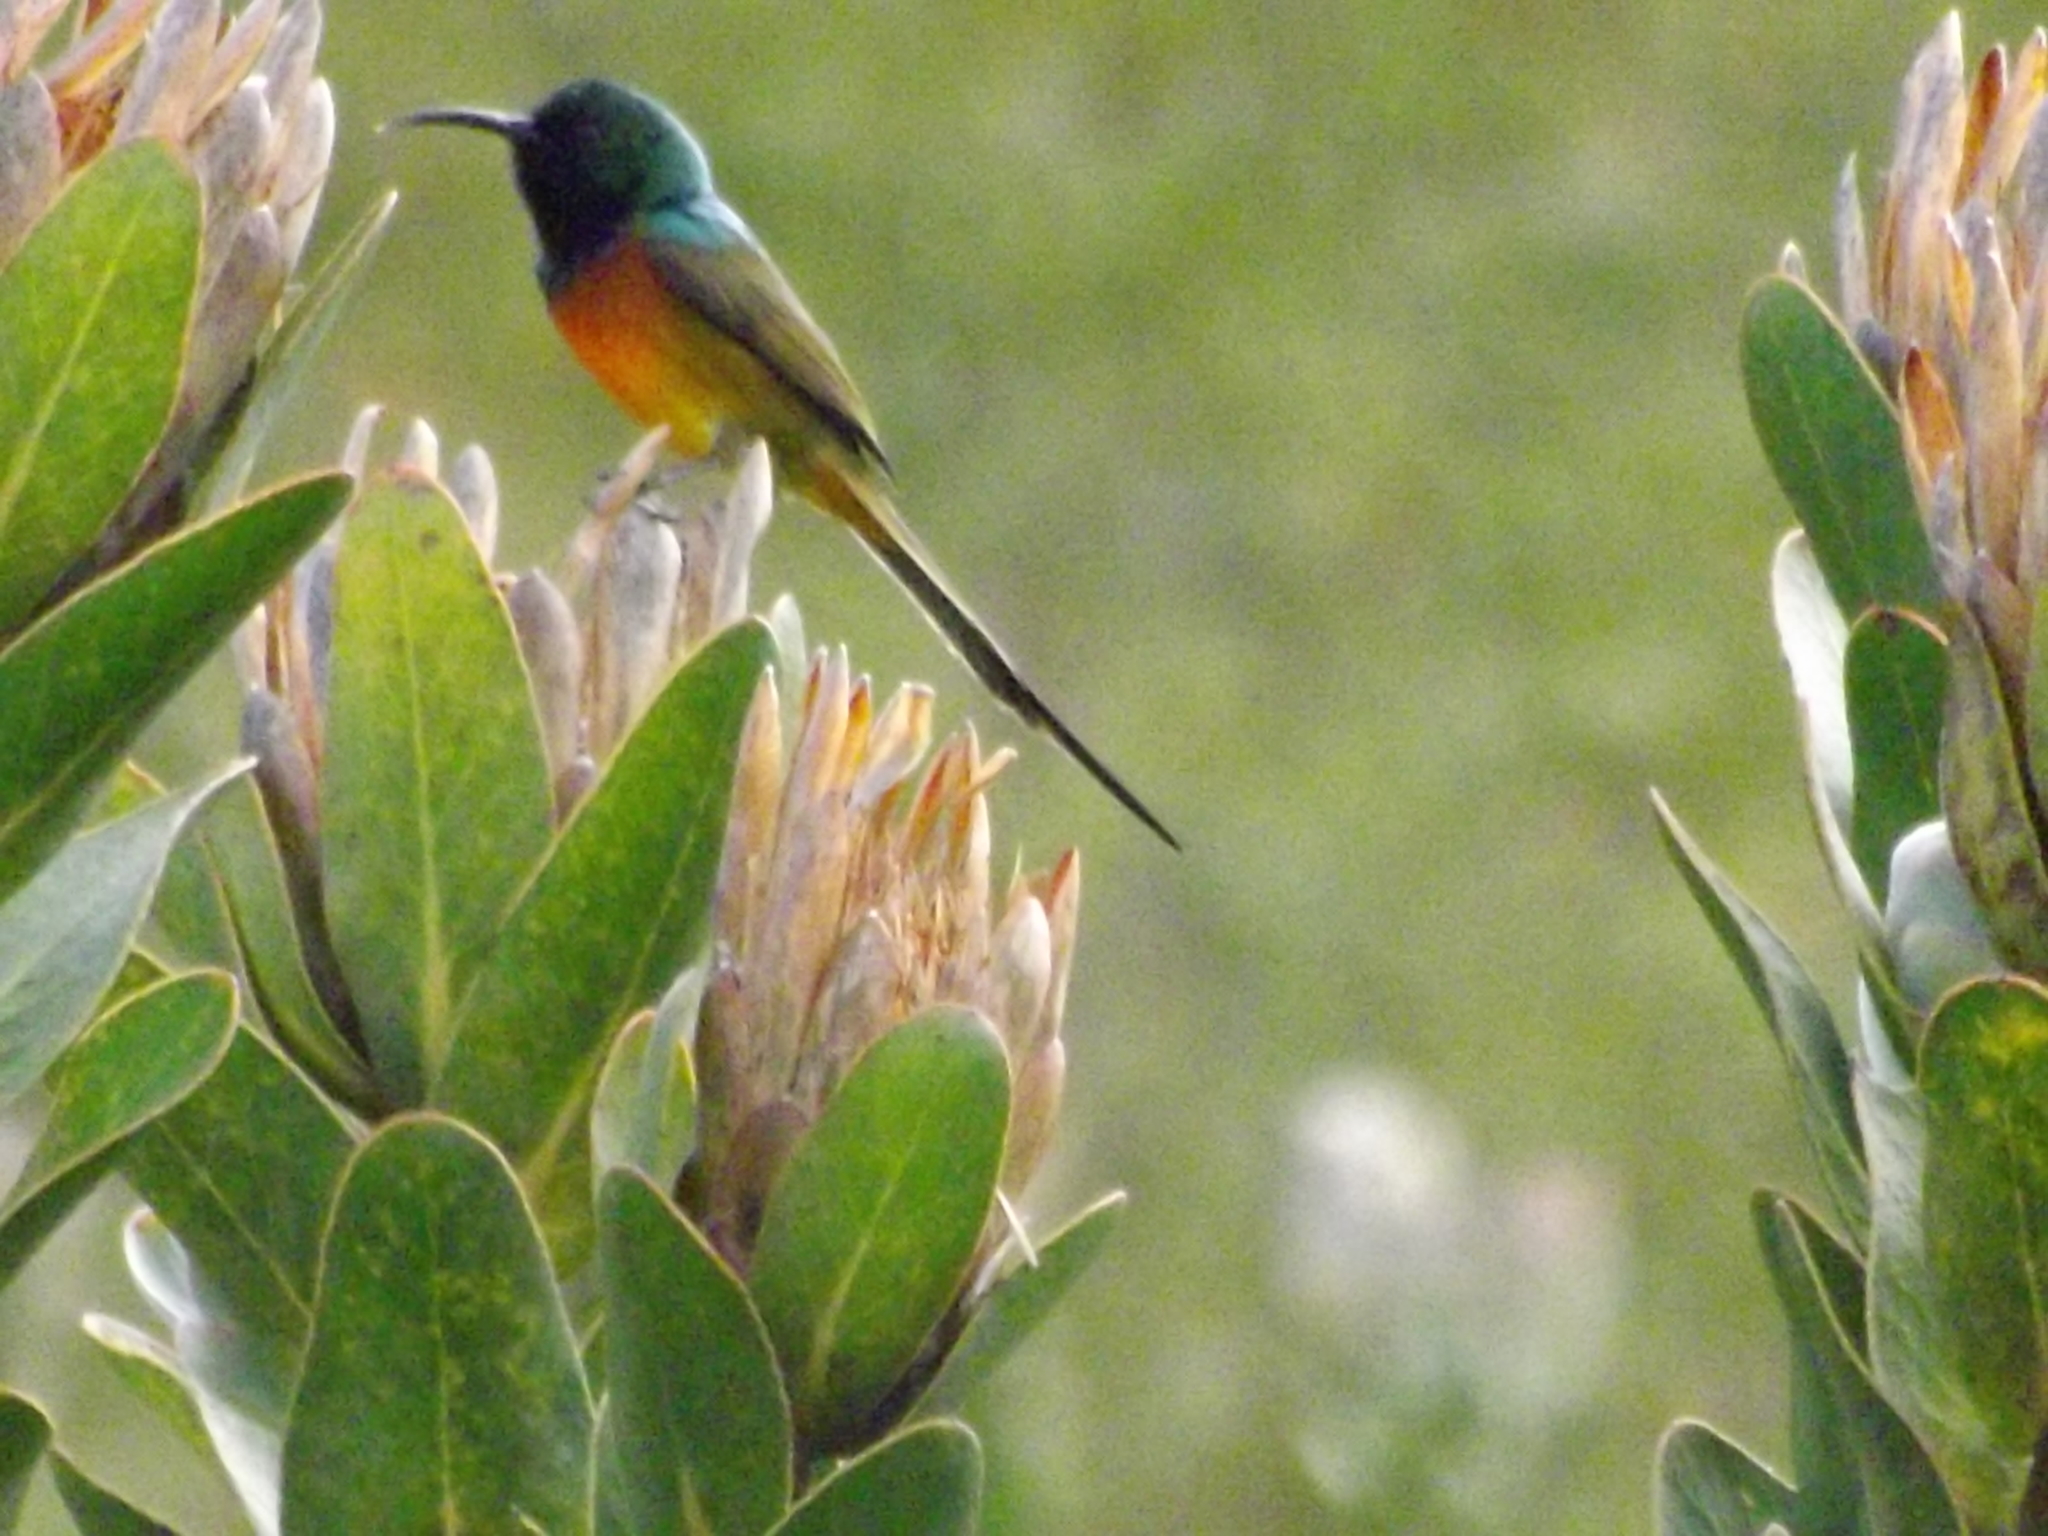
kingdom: Animalia
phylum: Chordata
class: Aves
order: Passeriformes
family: Nectariniidae
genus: Anthobaphes
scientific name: Anthobaphes violacea
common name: Orange-breasted sunbird
